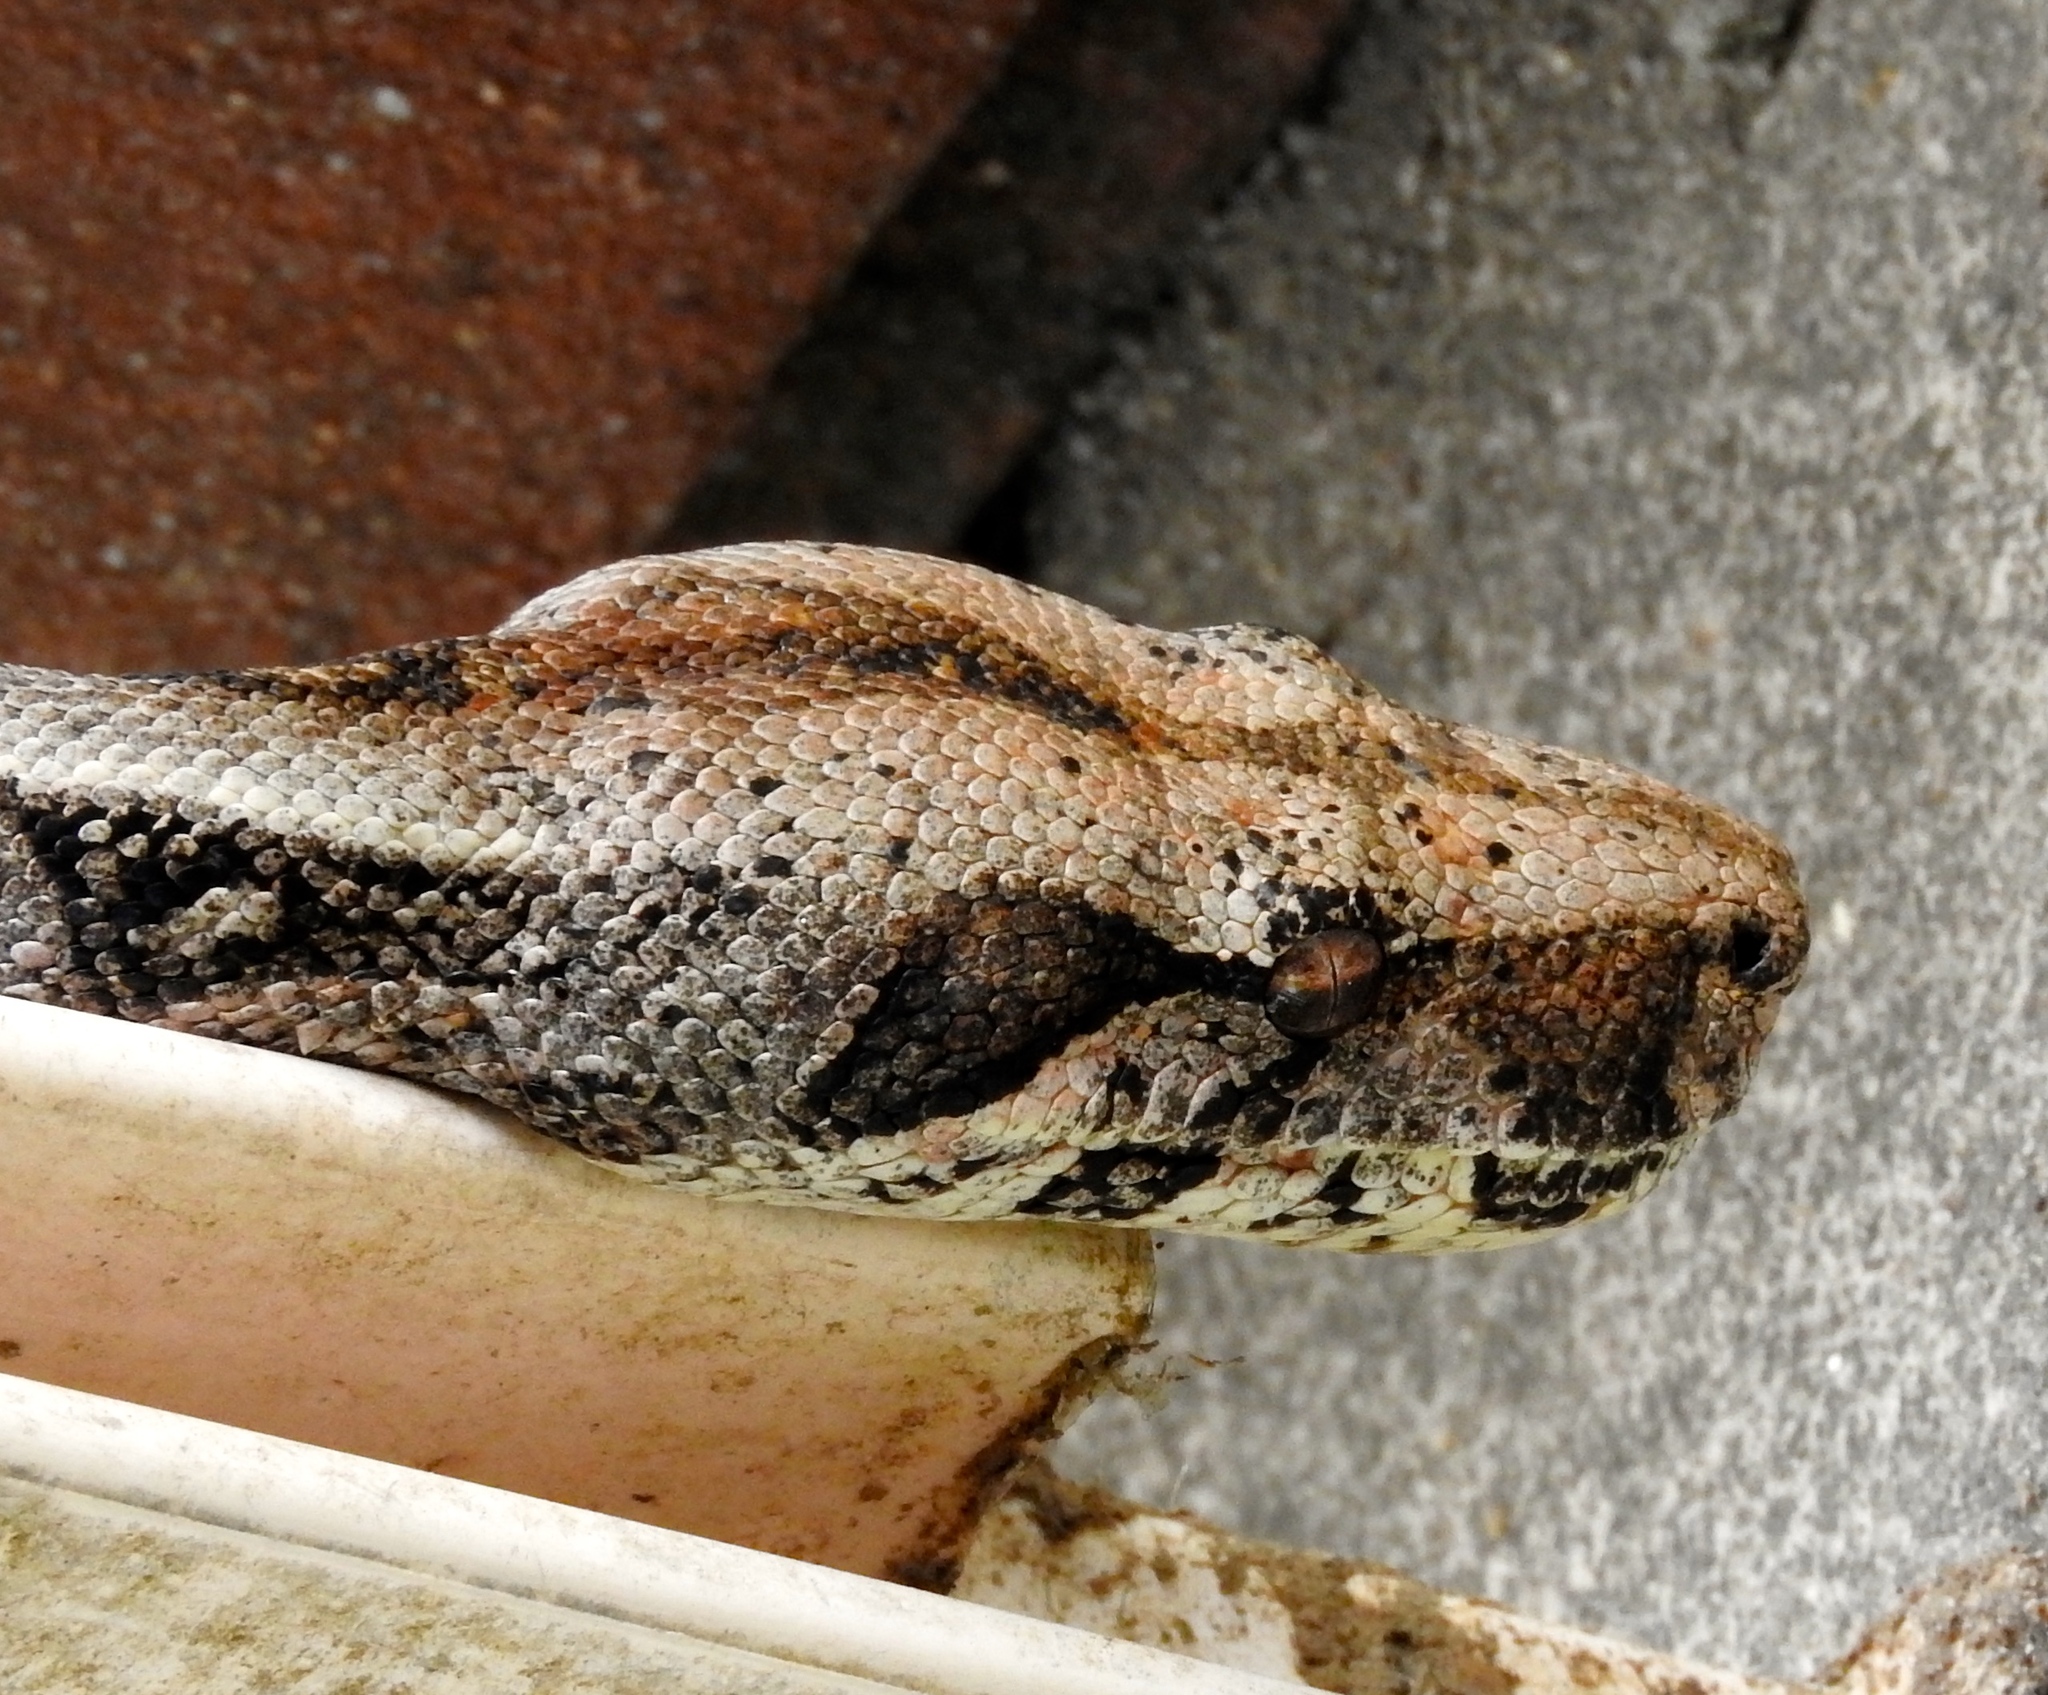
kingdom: Animalia
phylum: Chordata
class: Squamata
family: Boidae
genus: Boa
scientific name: Boa
